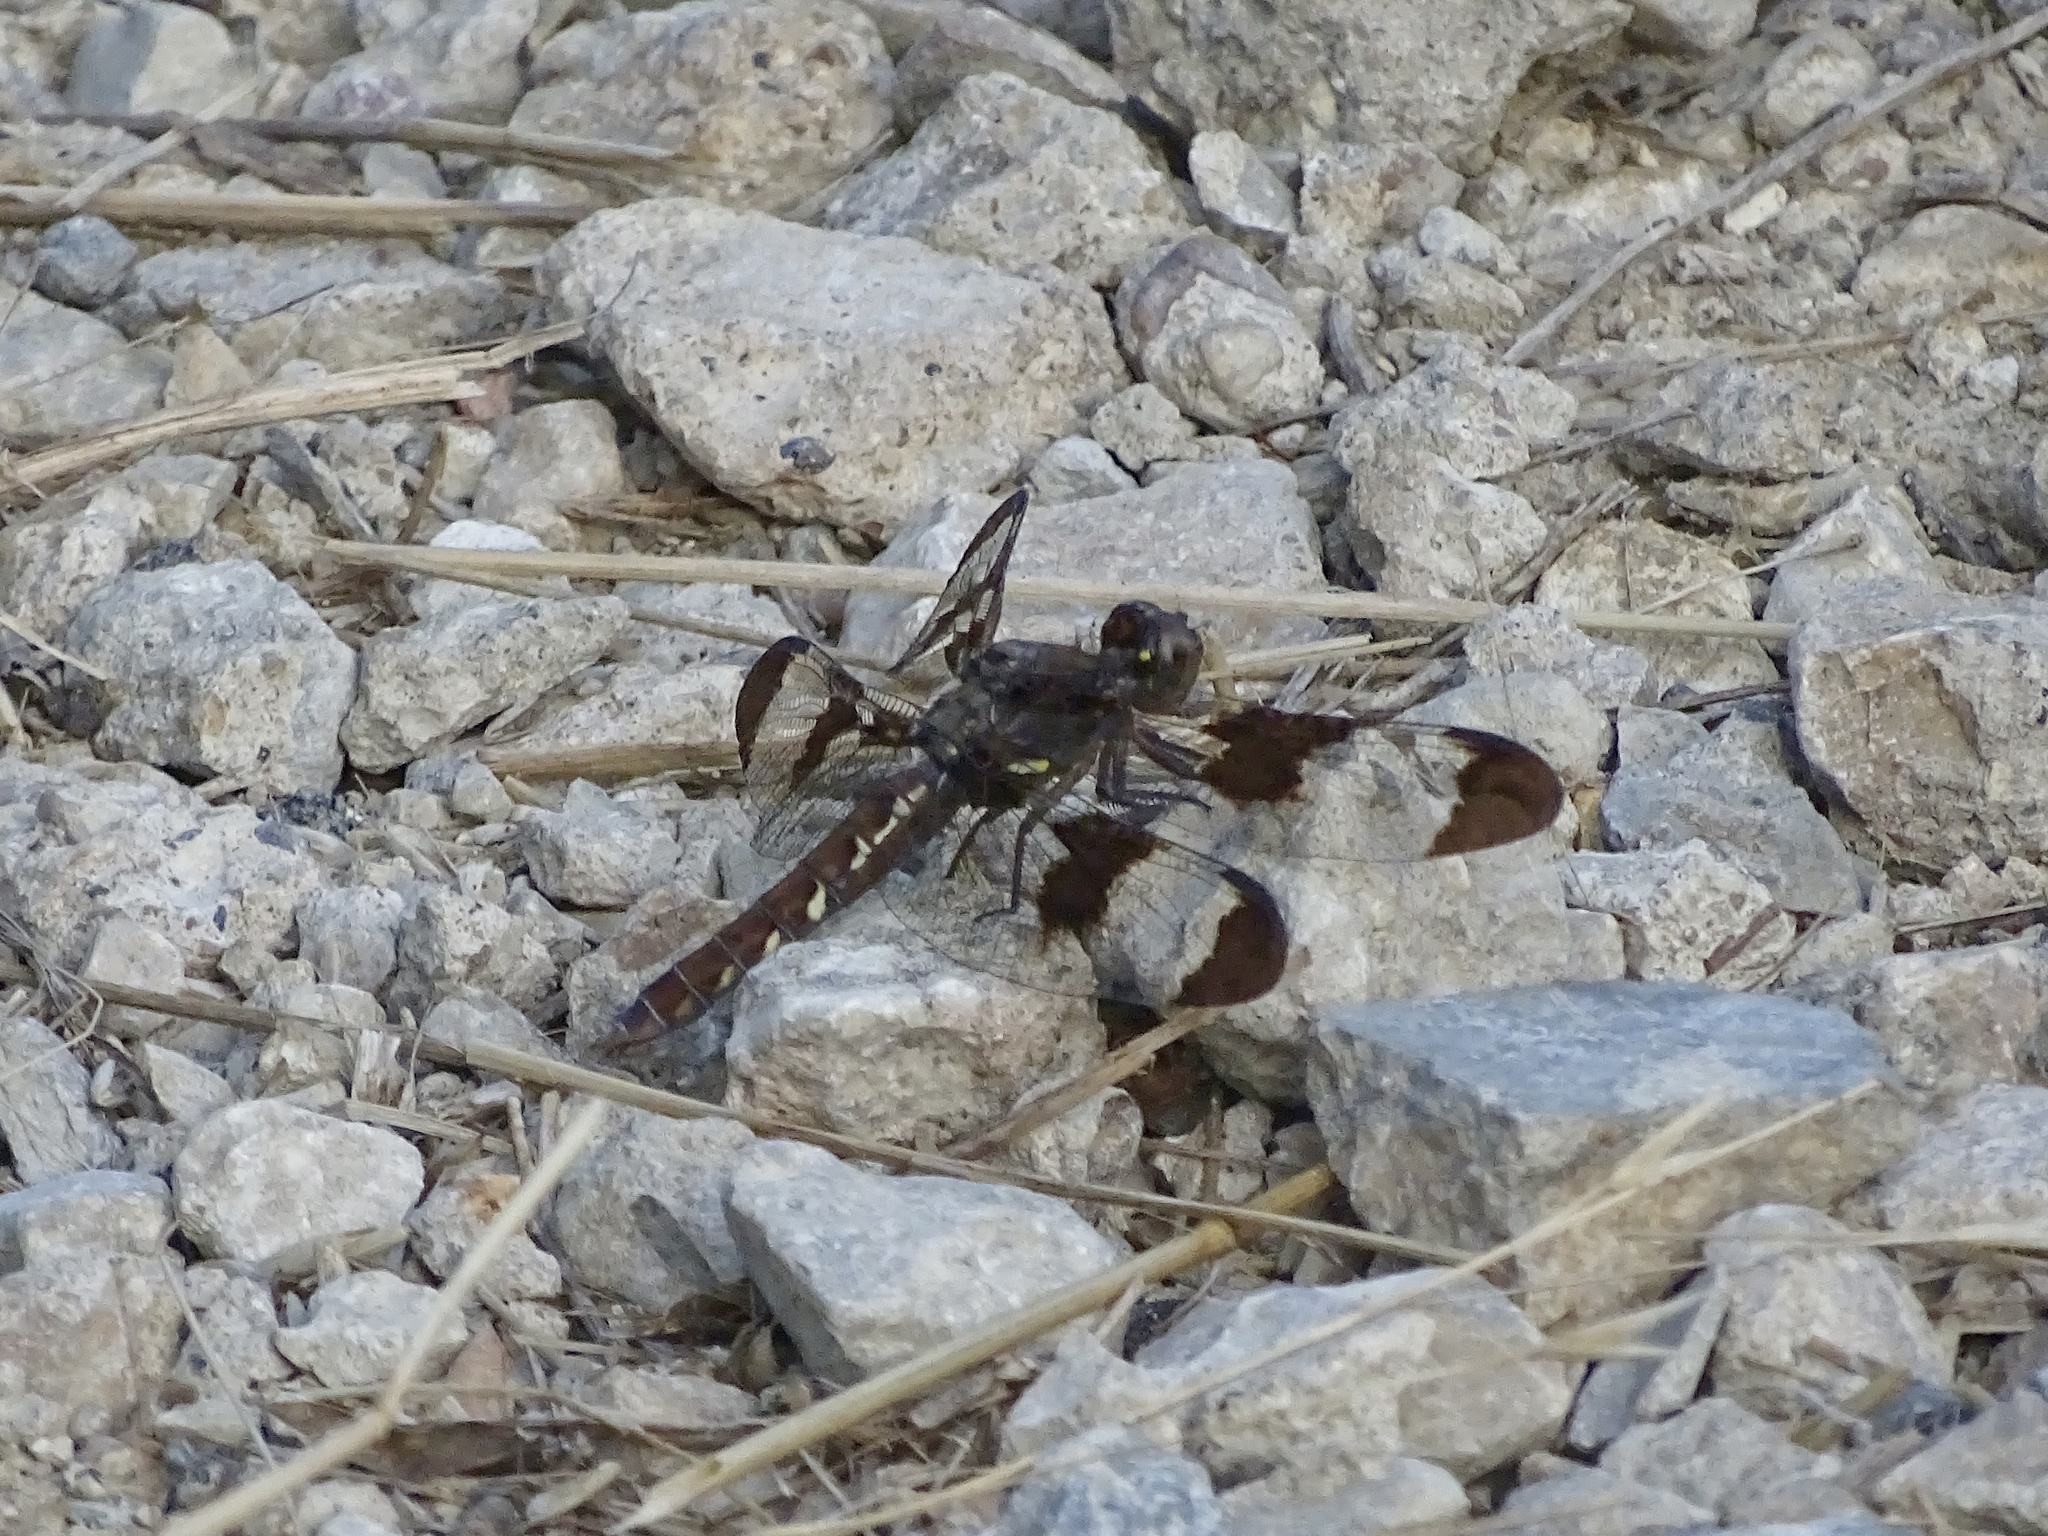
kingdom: Animalia
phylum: Arthropoda
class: Insecta
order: Odonata
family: Libellulidae
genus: Plathemis
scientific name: Plathemis lydia
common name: Common whitetail
